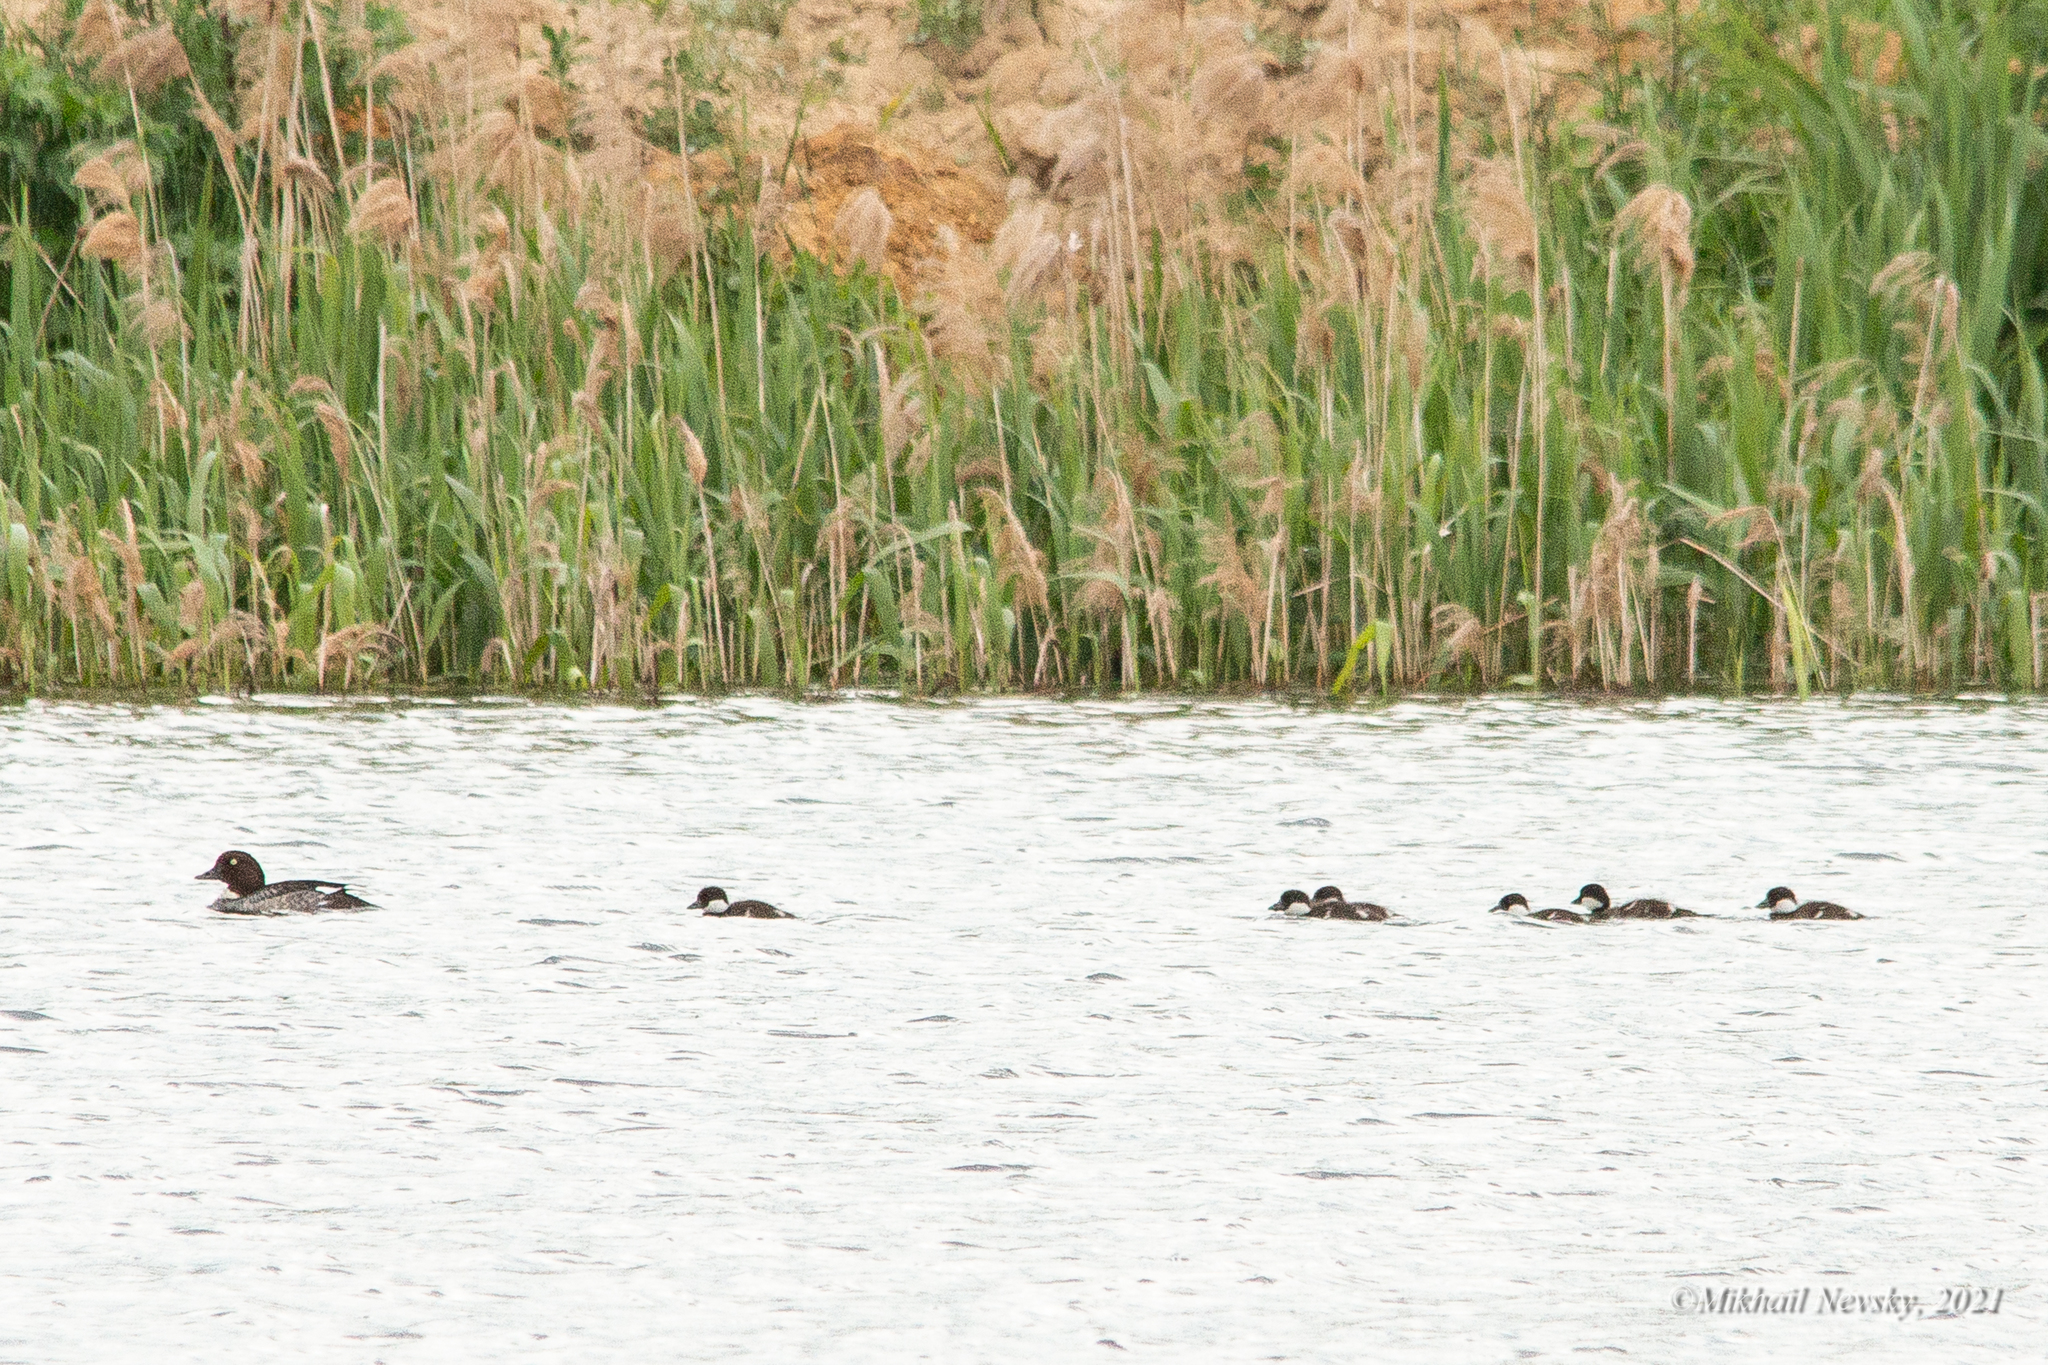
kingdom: Animalia
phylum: Chordata
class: Aves
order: Anseriformes
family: Anatidae
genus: Bucephala
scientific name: Bucephala clangula
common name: Common goldeneye
